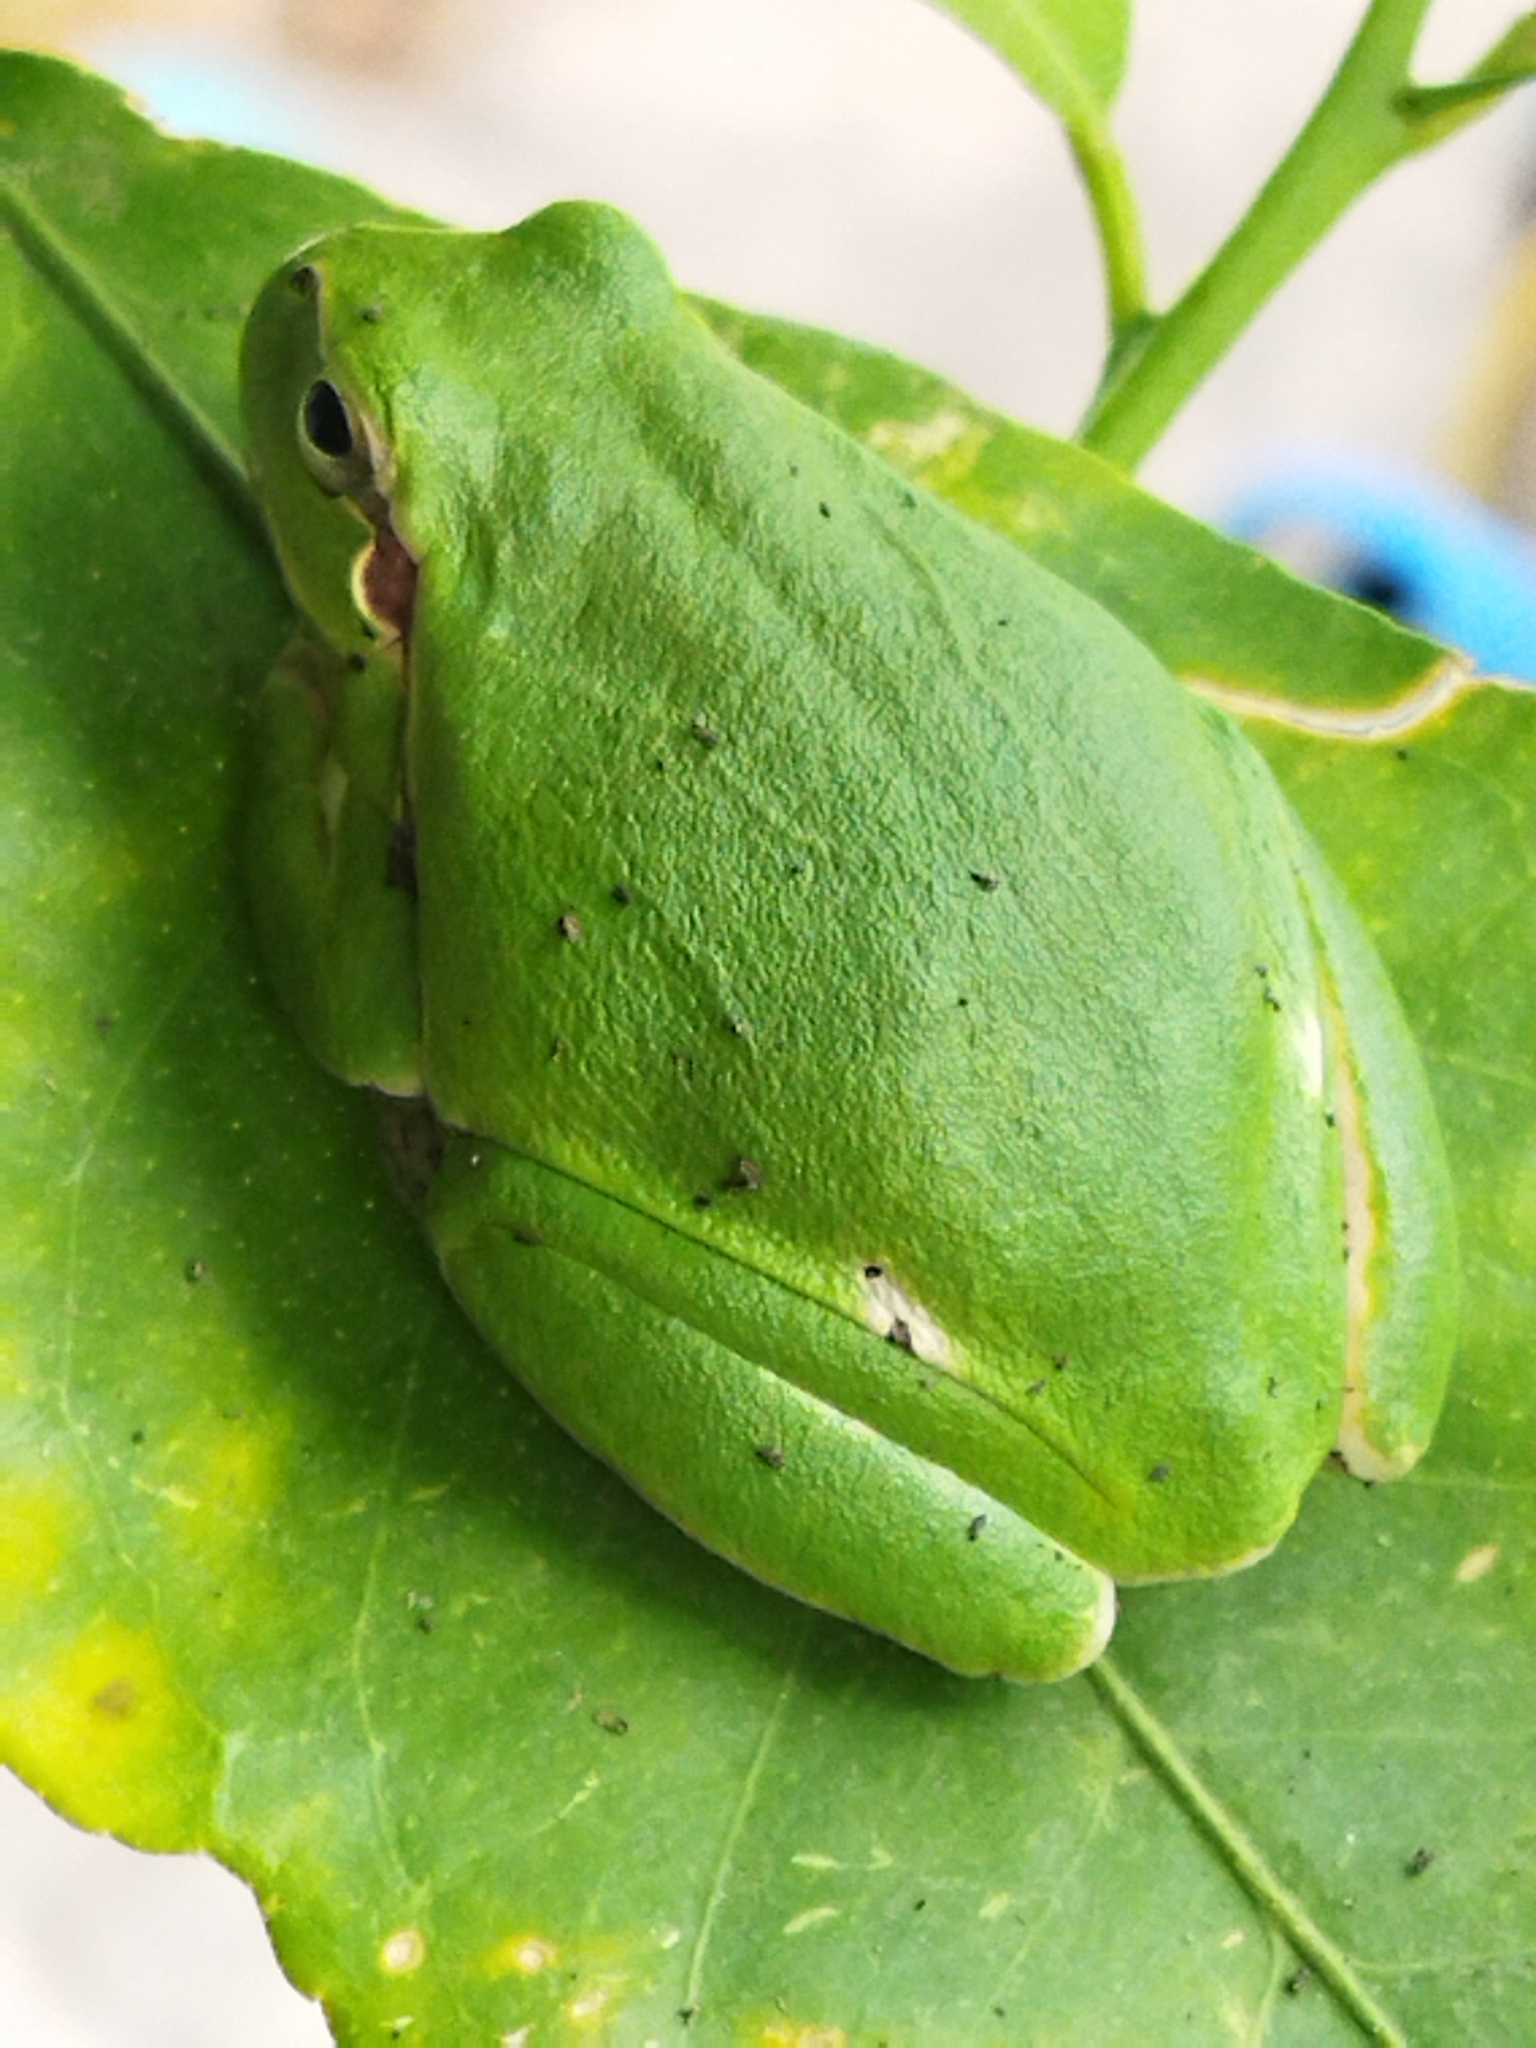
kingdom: Animalia
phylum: Chordata
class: Amphibia
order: Anura
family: Hylidae
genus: Hyla
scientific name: Hyla orientalis
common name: Caucasian treefrog
